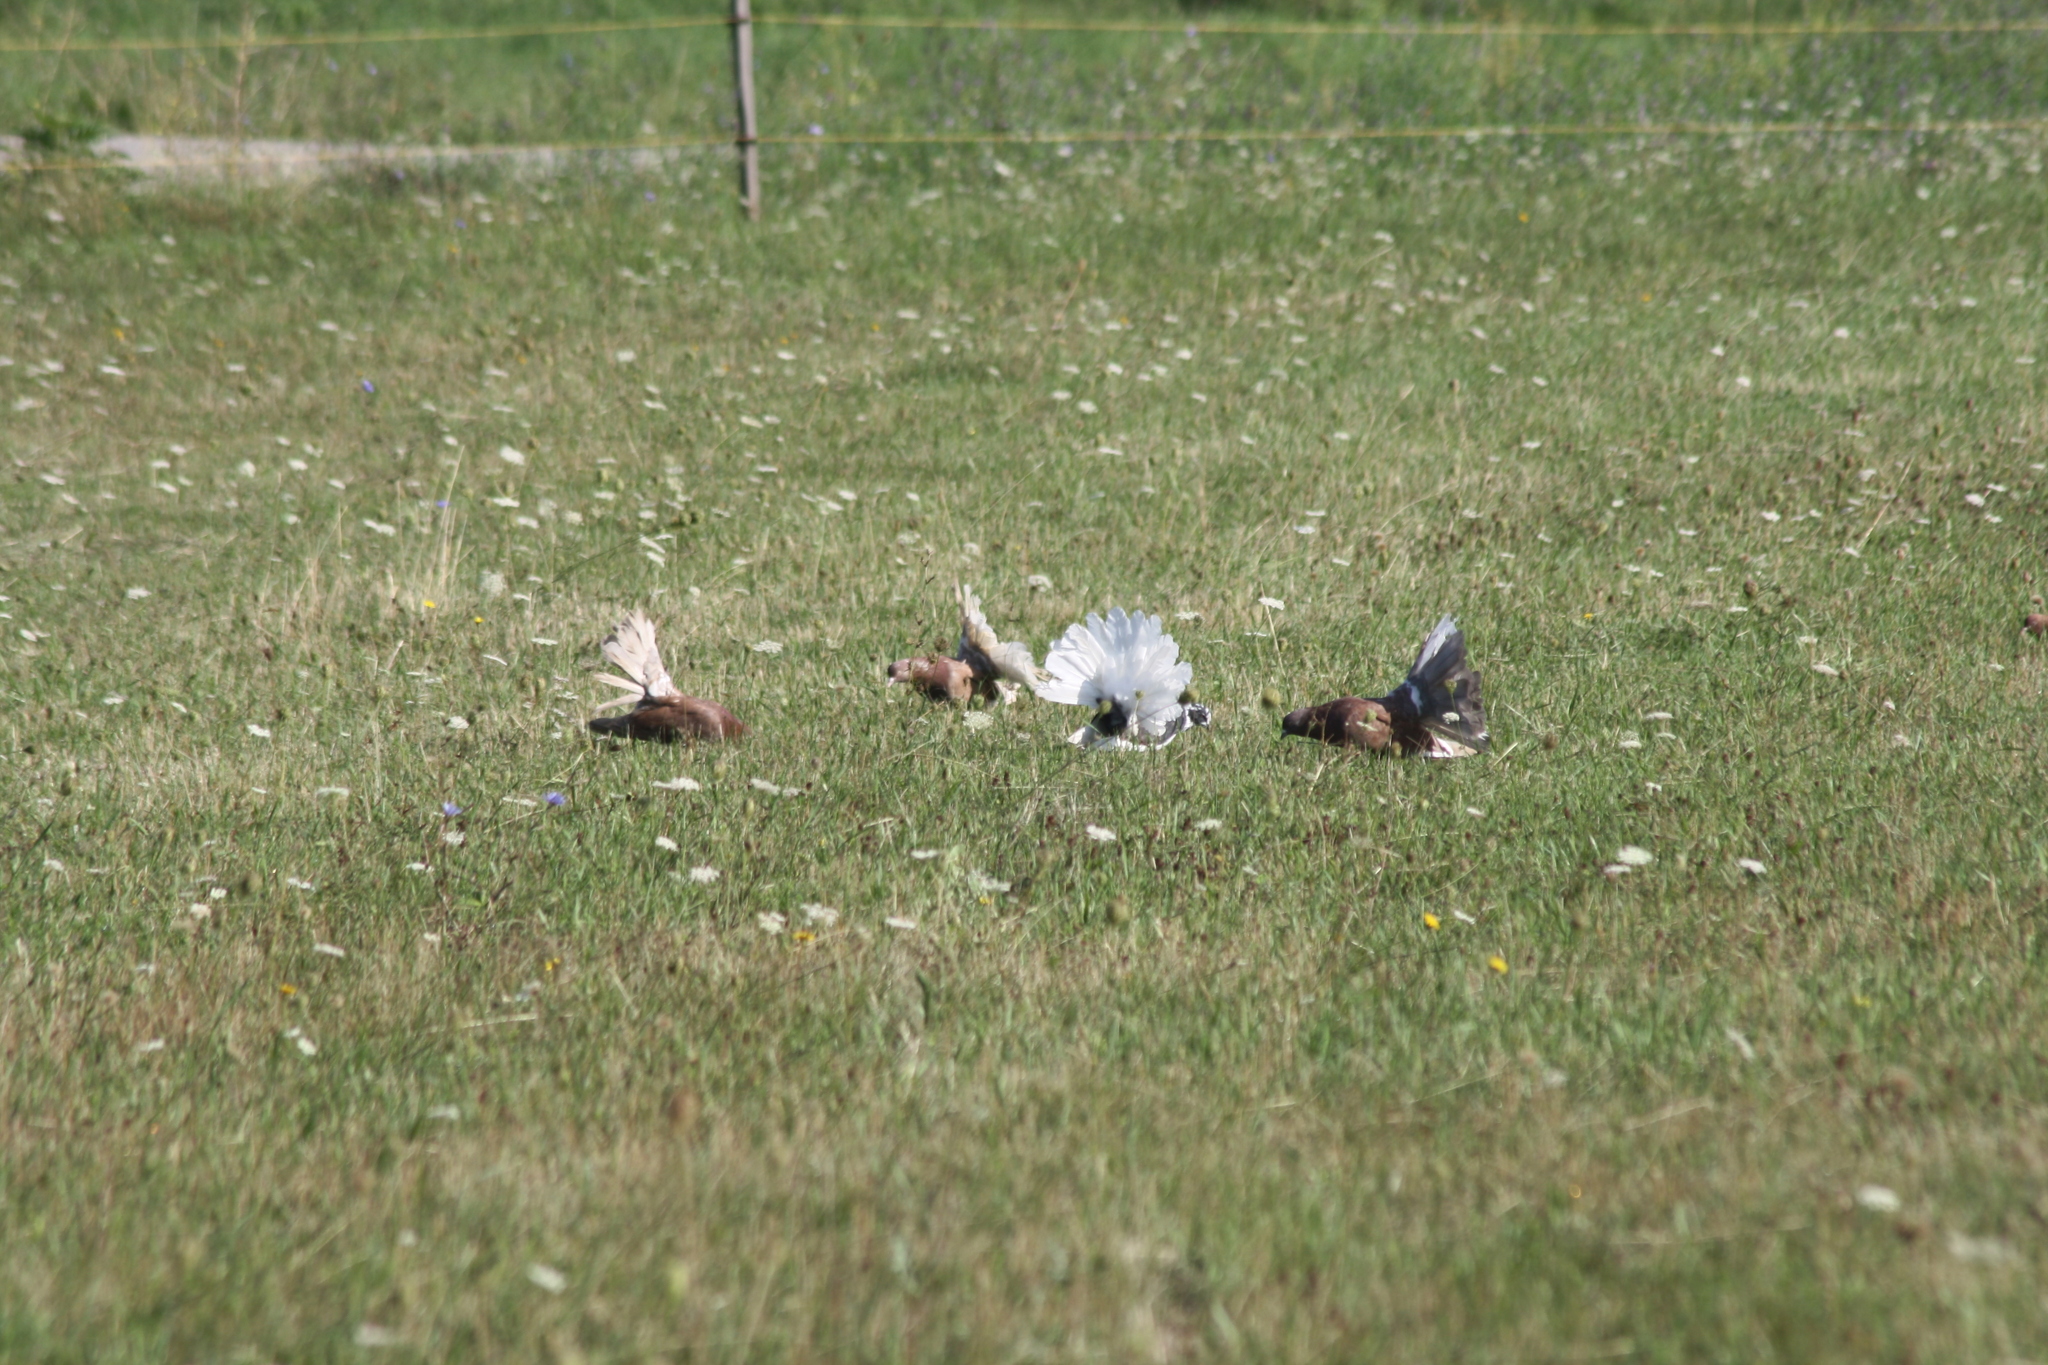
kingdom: Animalia
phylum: Chordata
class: Aves
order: Columbiformes
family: Columbidae
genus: Columba
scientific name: Columba livia
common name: Rock pigeon
